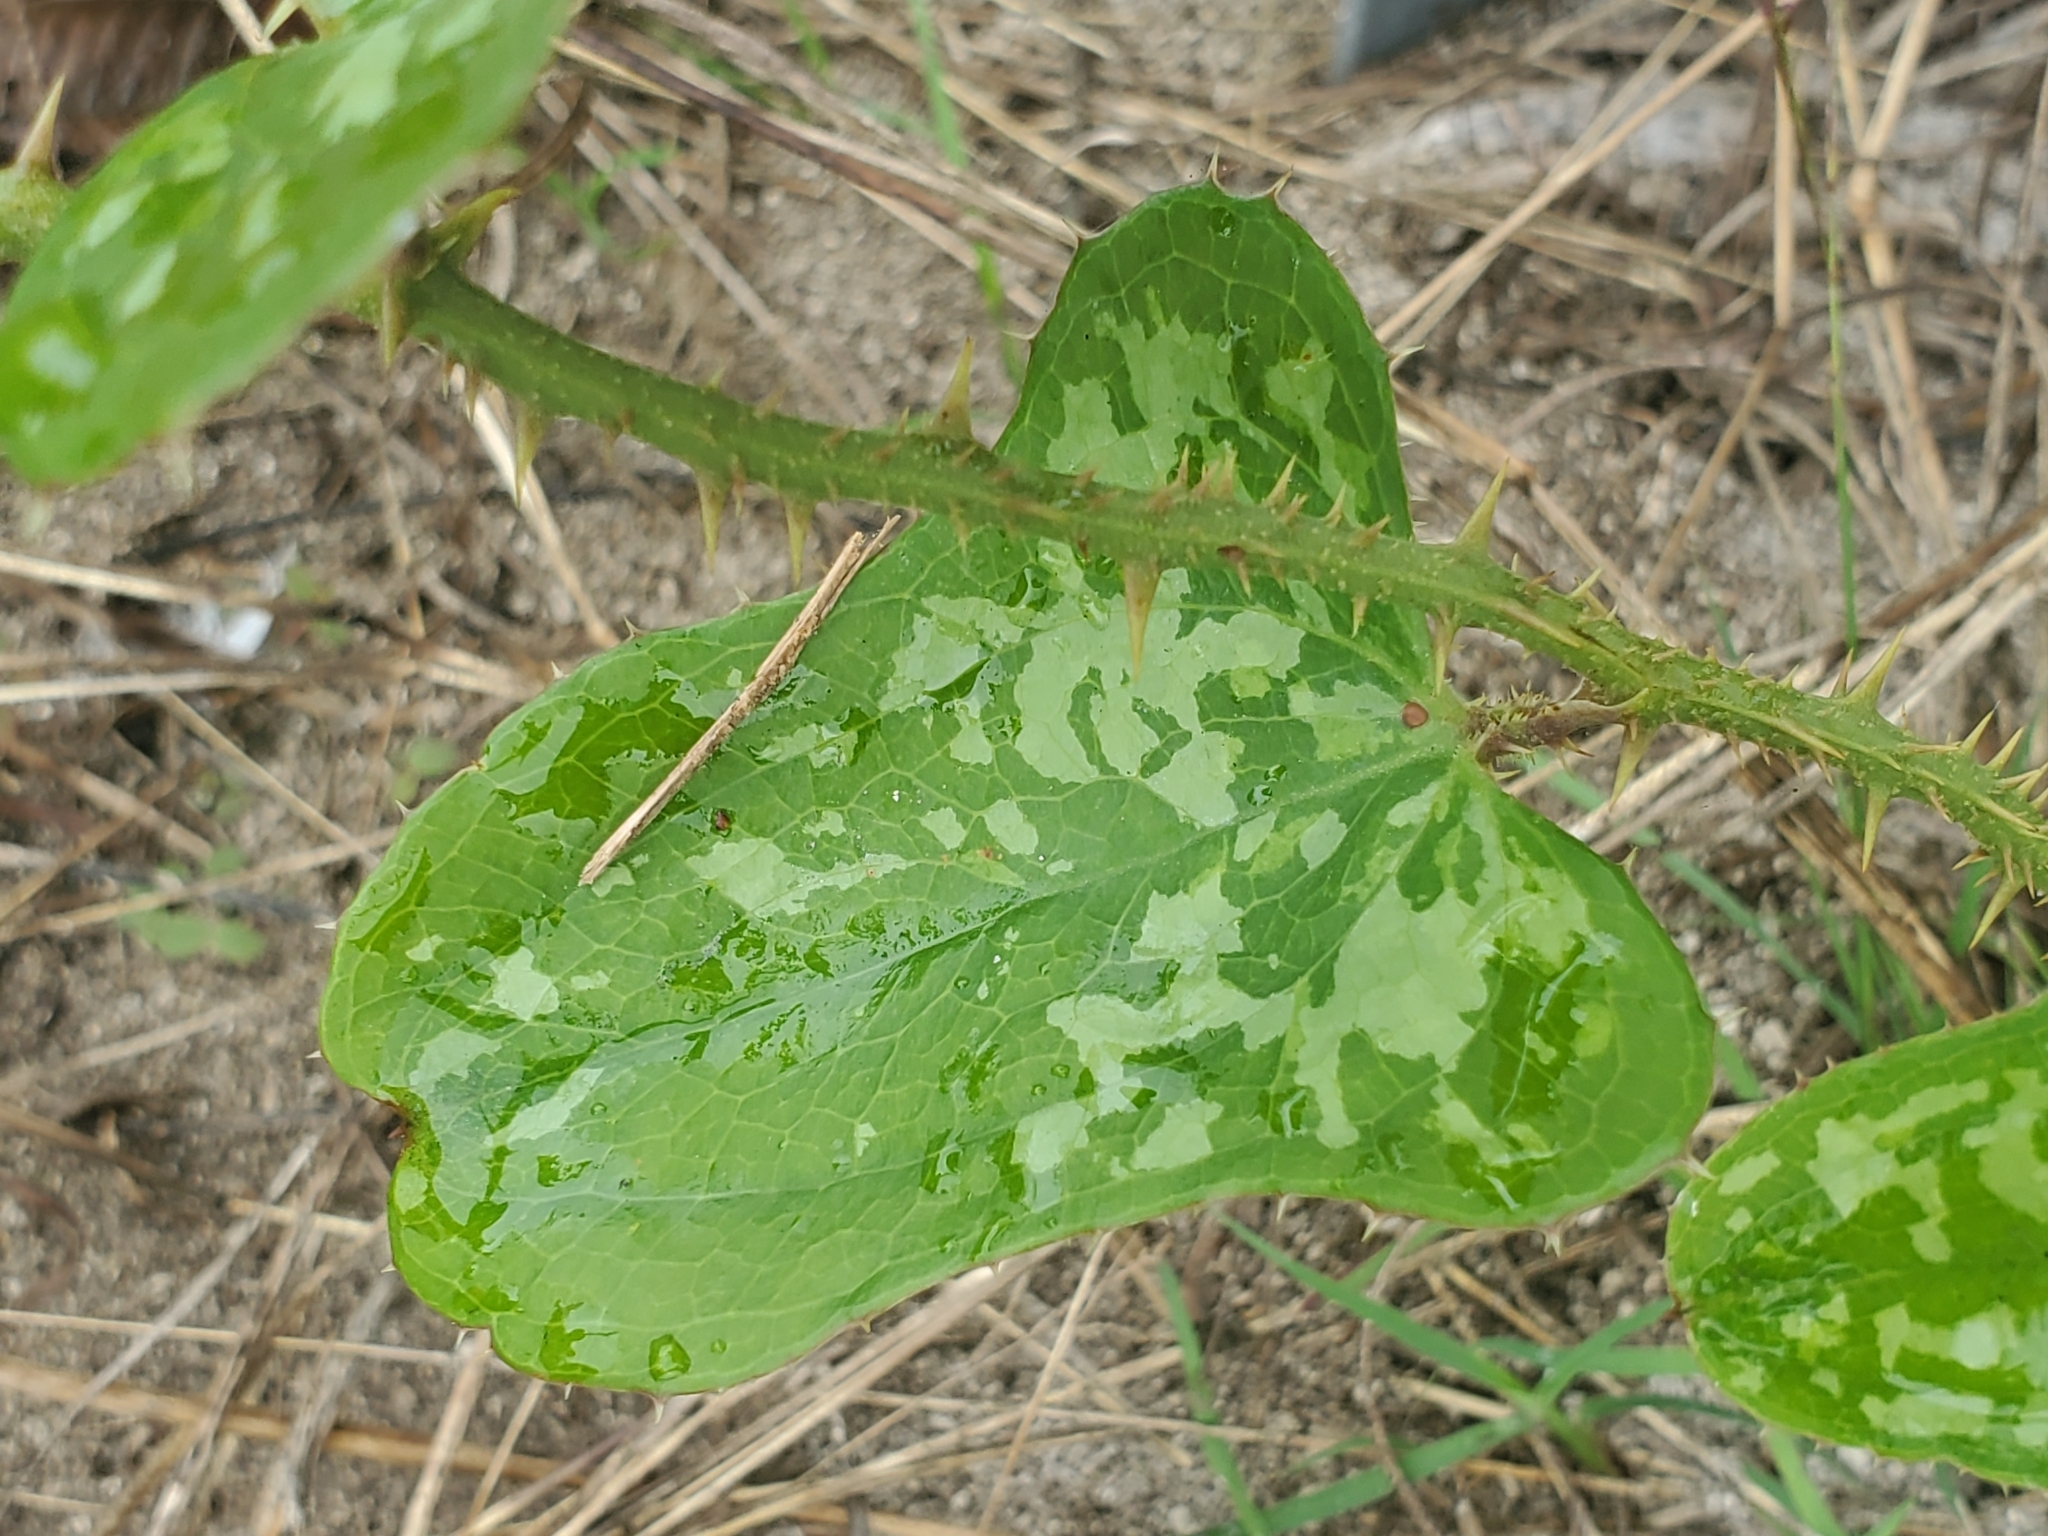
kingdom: Plantae
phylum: Tracheophyta
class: Liliopsida
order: Liliales
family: Smilacaceae
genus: Smilax
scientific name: Smilax bona-nox
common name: Catbrier
